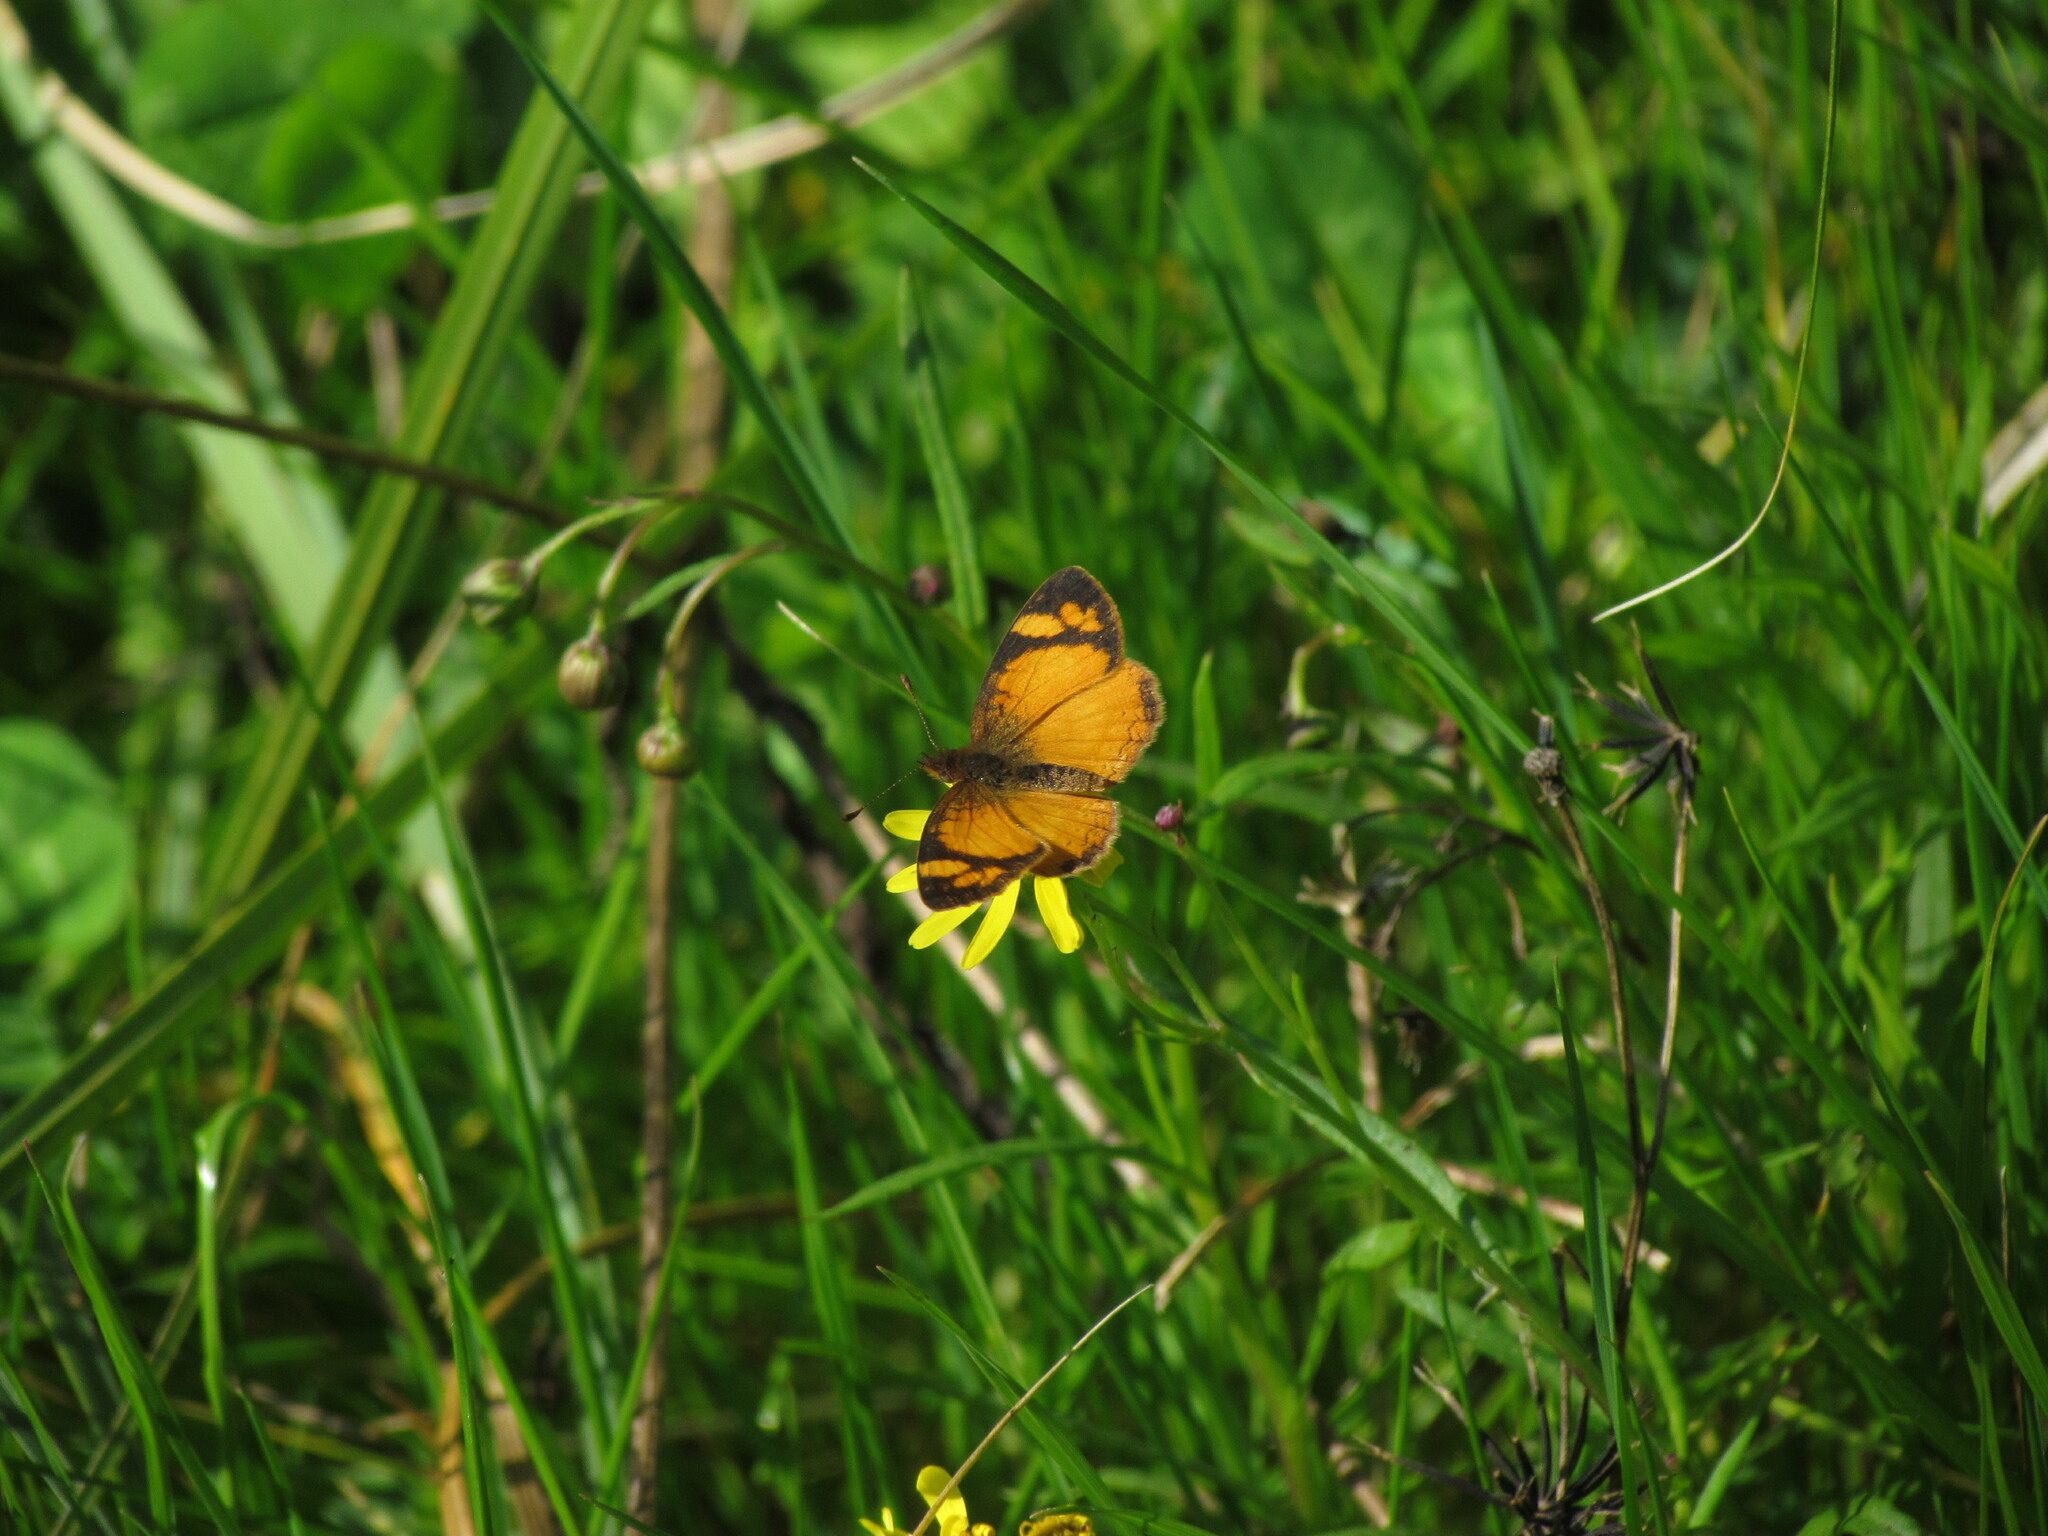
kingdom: Animalia
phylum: Arthropoda
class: Insecta
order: Lepidoptera
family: Nymphalidae
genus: Tegosa
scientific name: Tegosa claudina
